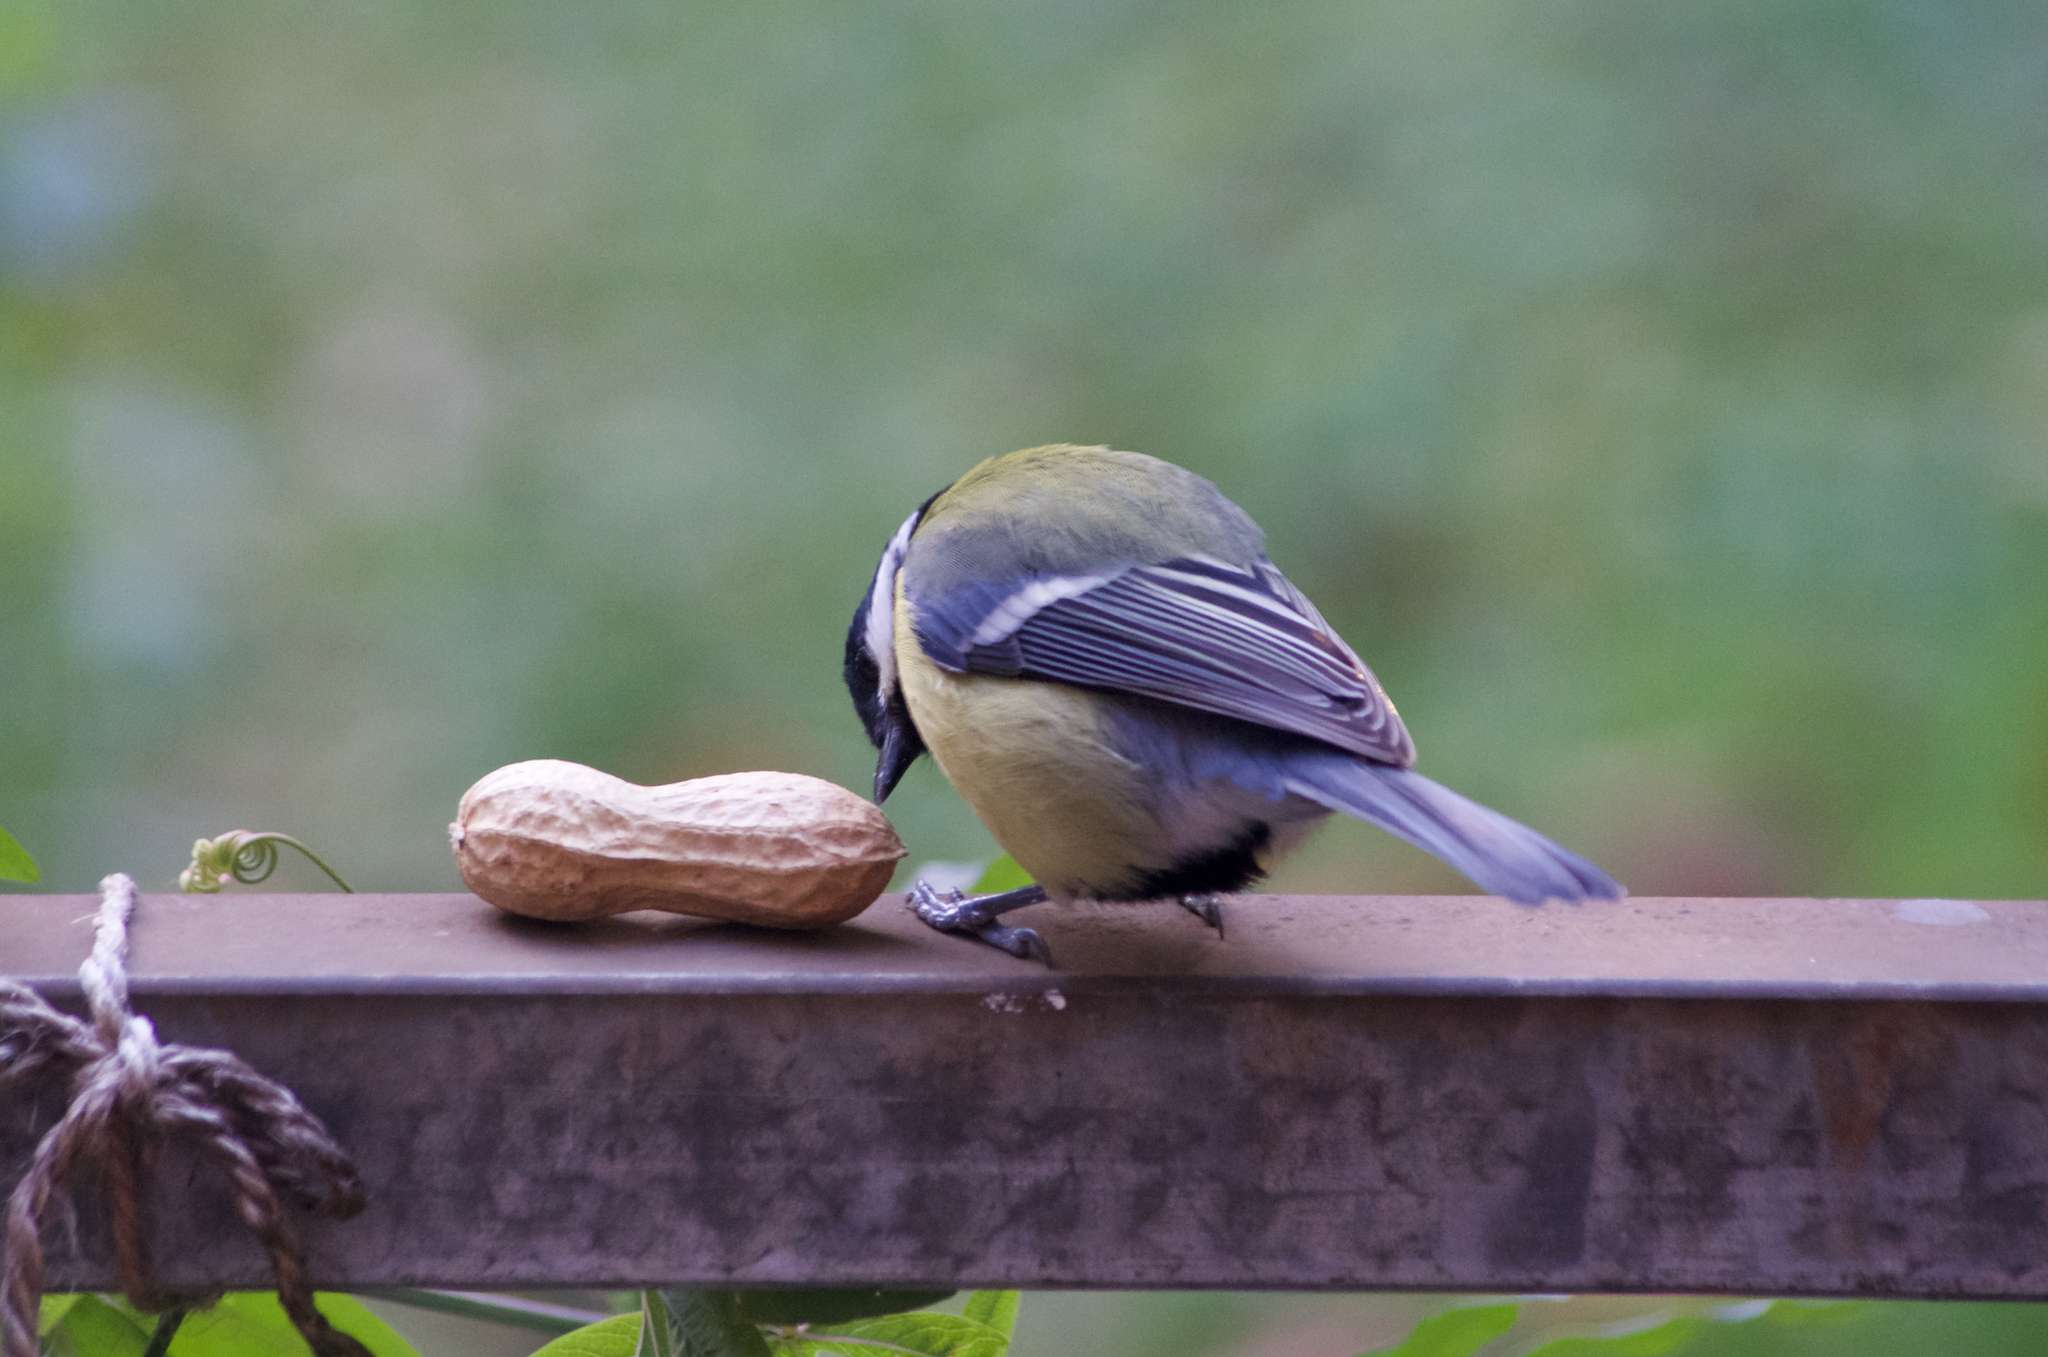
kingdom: Animalia
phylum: Chordata
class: Aves
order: Passeriformes
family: Paridae
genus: Parus
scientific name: Parus major
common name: Great tit
